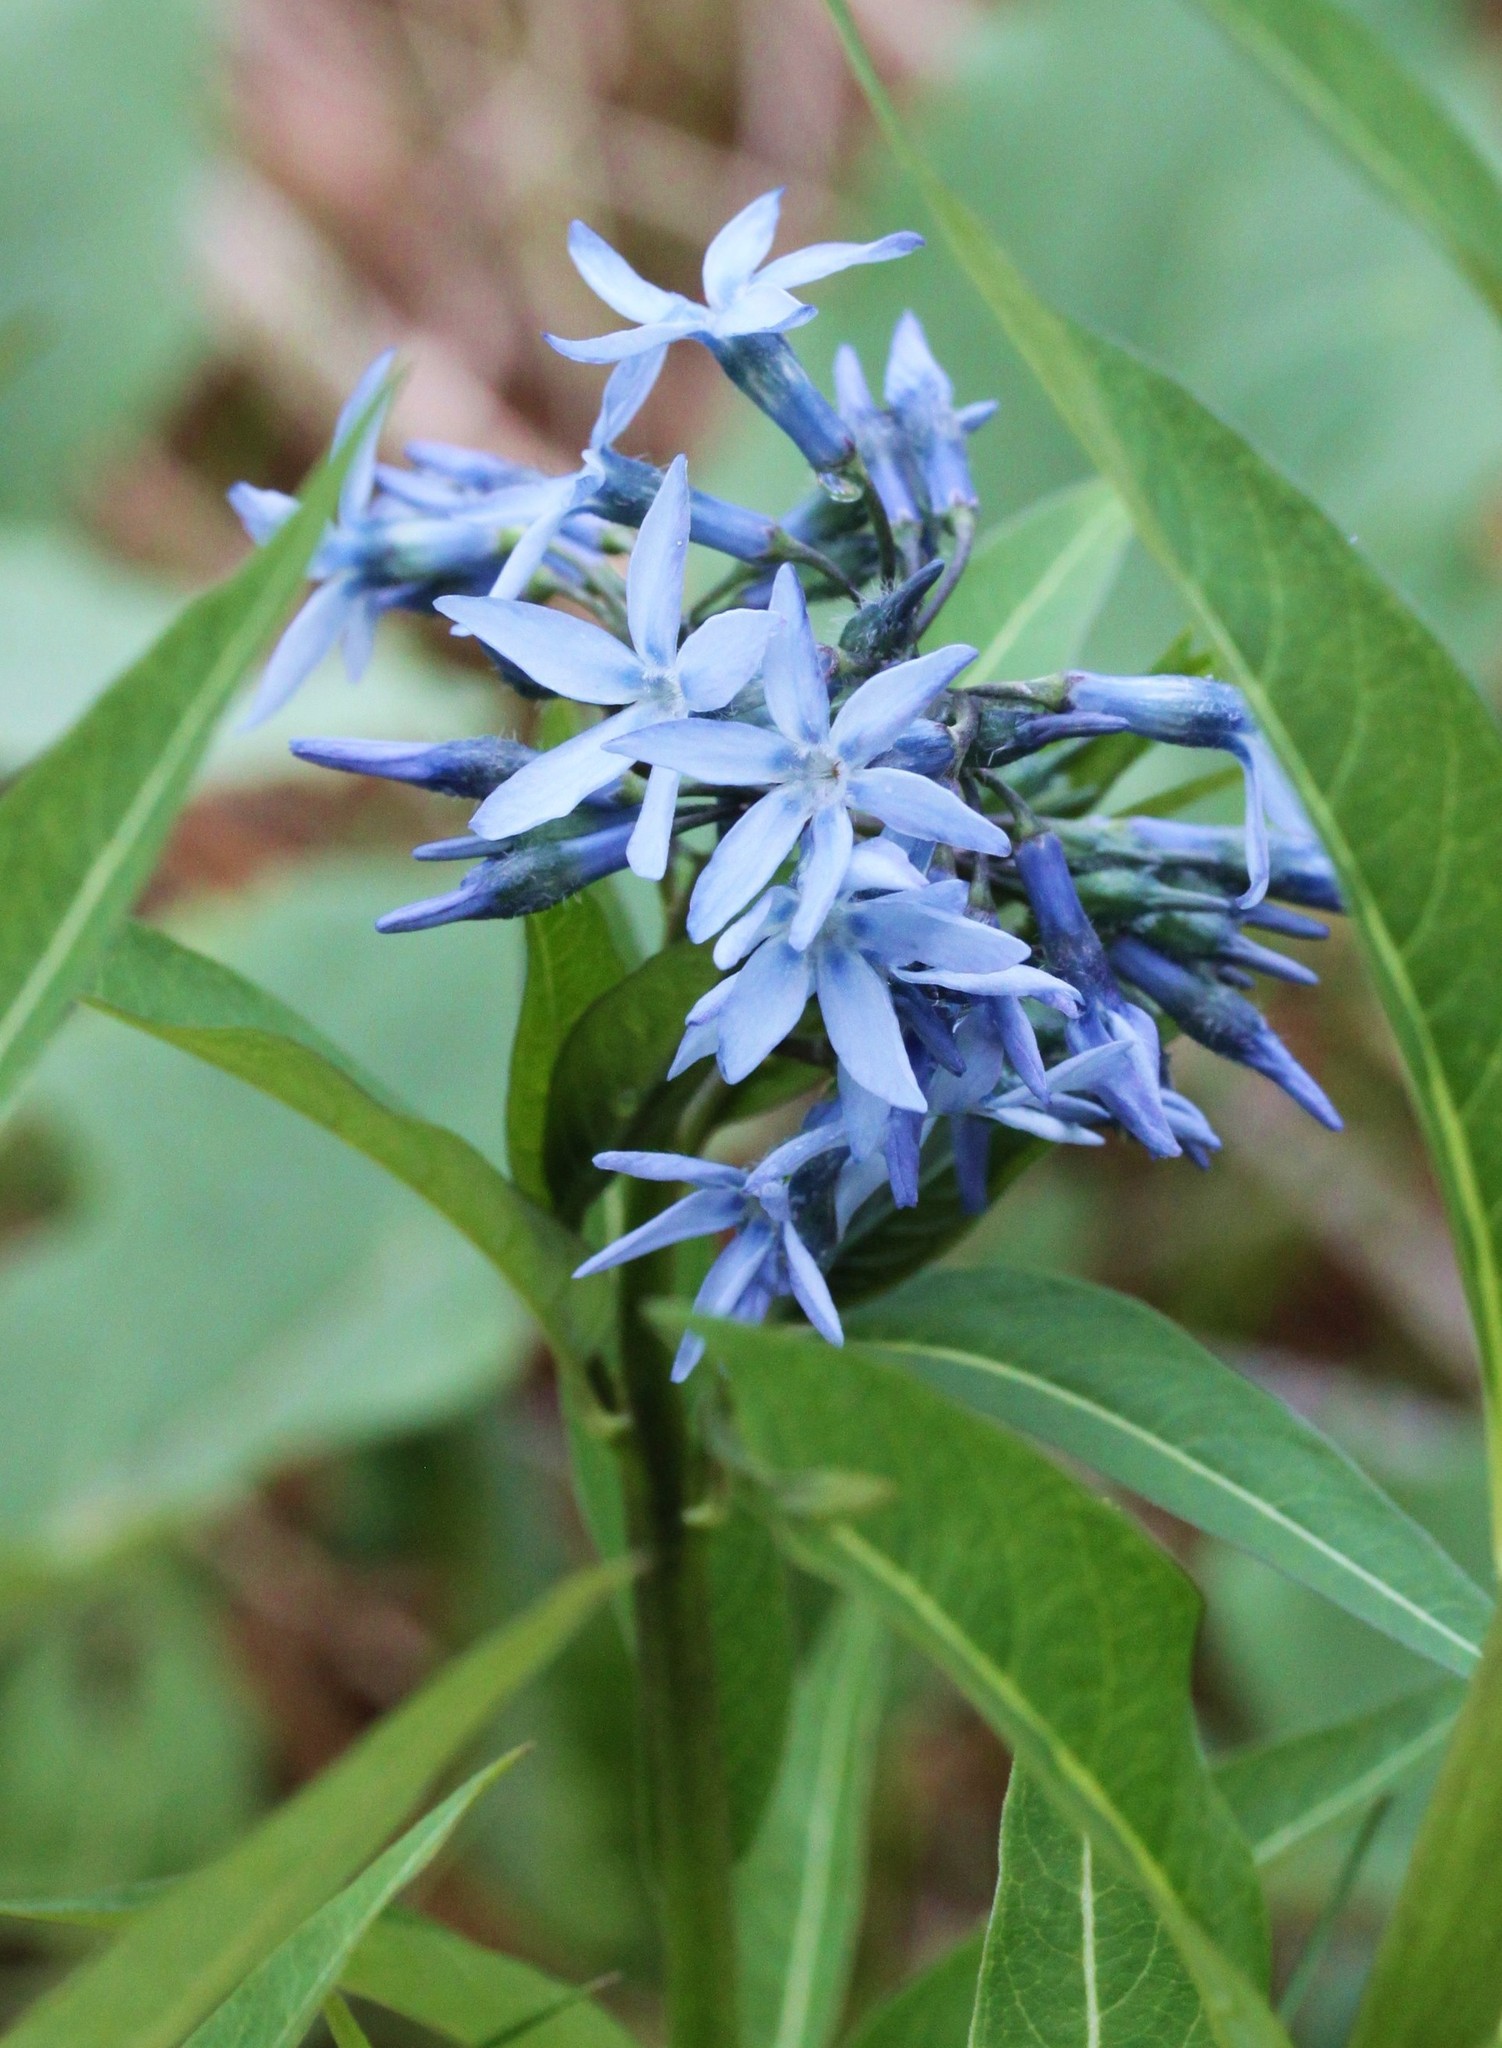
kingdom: Plantae
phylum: Tracheophyta
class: Magnoliopsida
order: Gentianales
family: Apocynaceae
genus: Amsonia
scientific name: Amsonia tabernaemontana
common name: Texas-star
